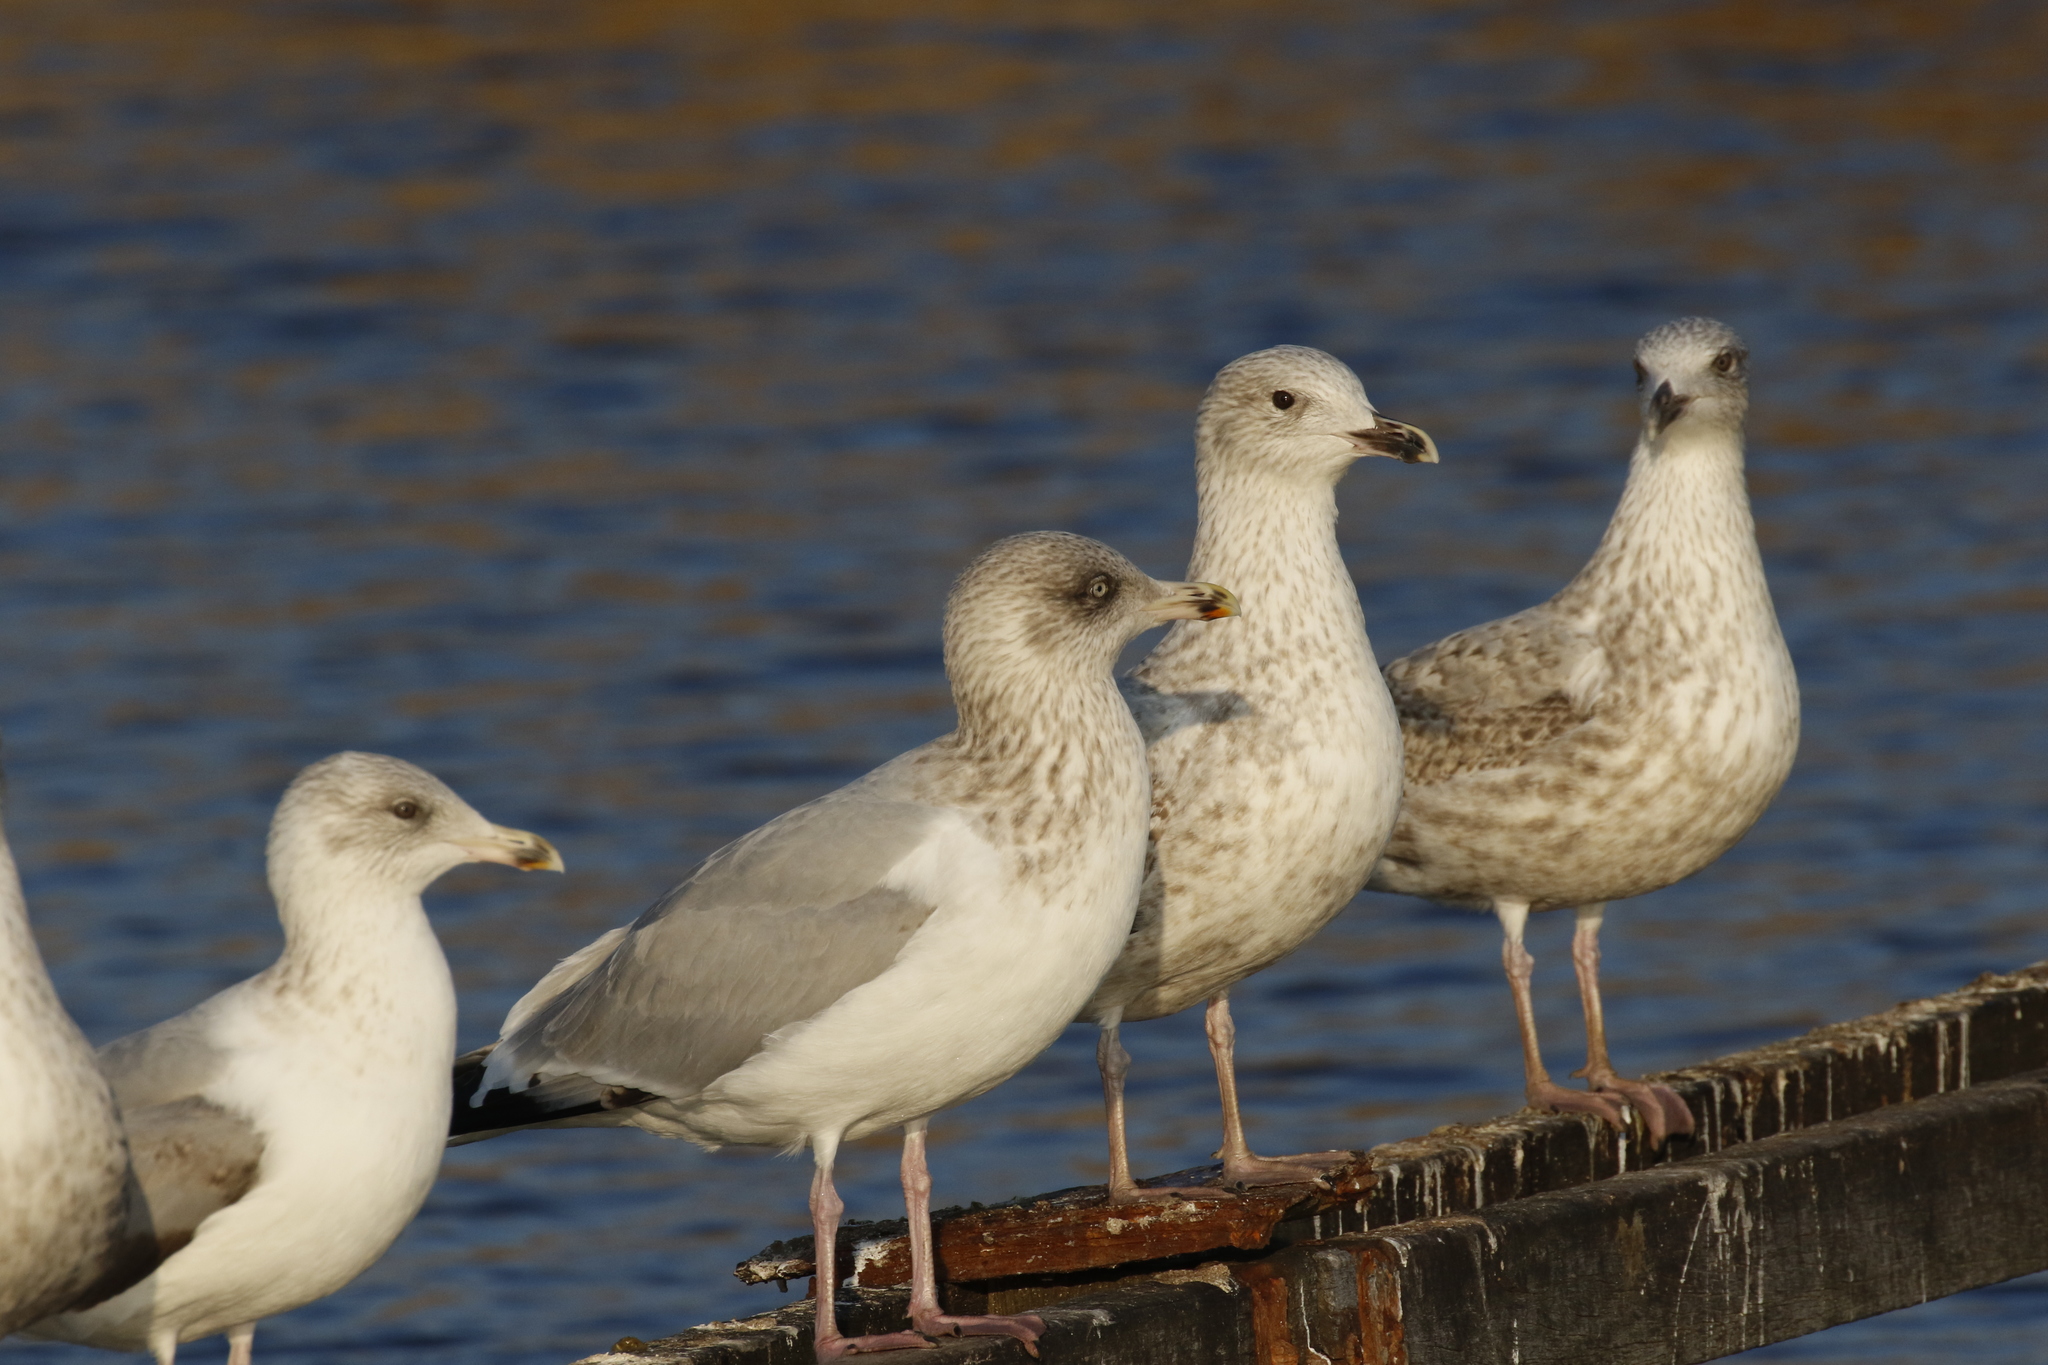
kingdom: Animalia
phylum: Chordata
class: Aves
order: Charadriiformes
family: Laridae
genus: Larus
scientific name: Larus argentatus
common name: Herring gull
